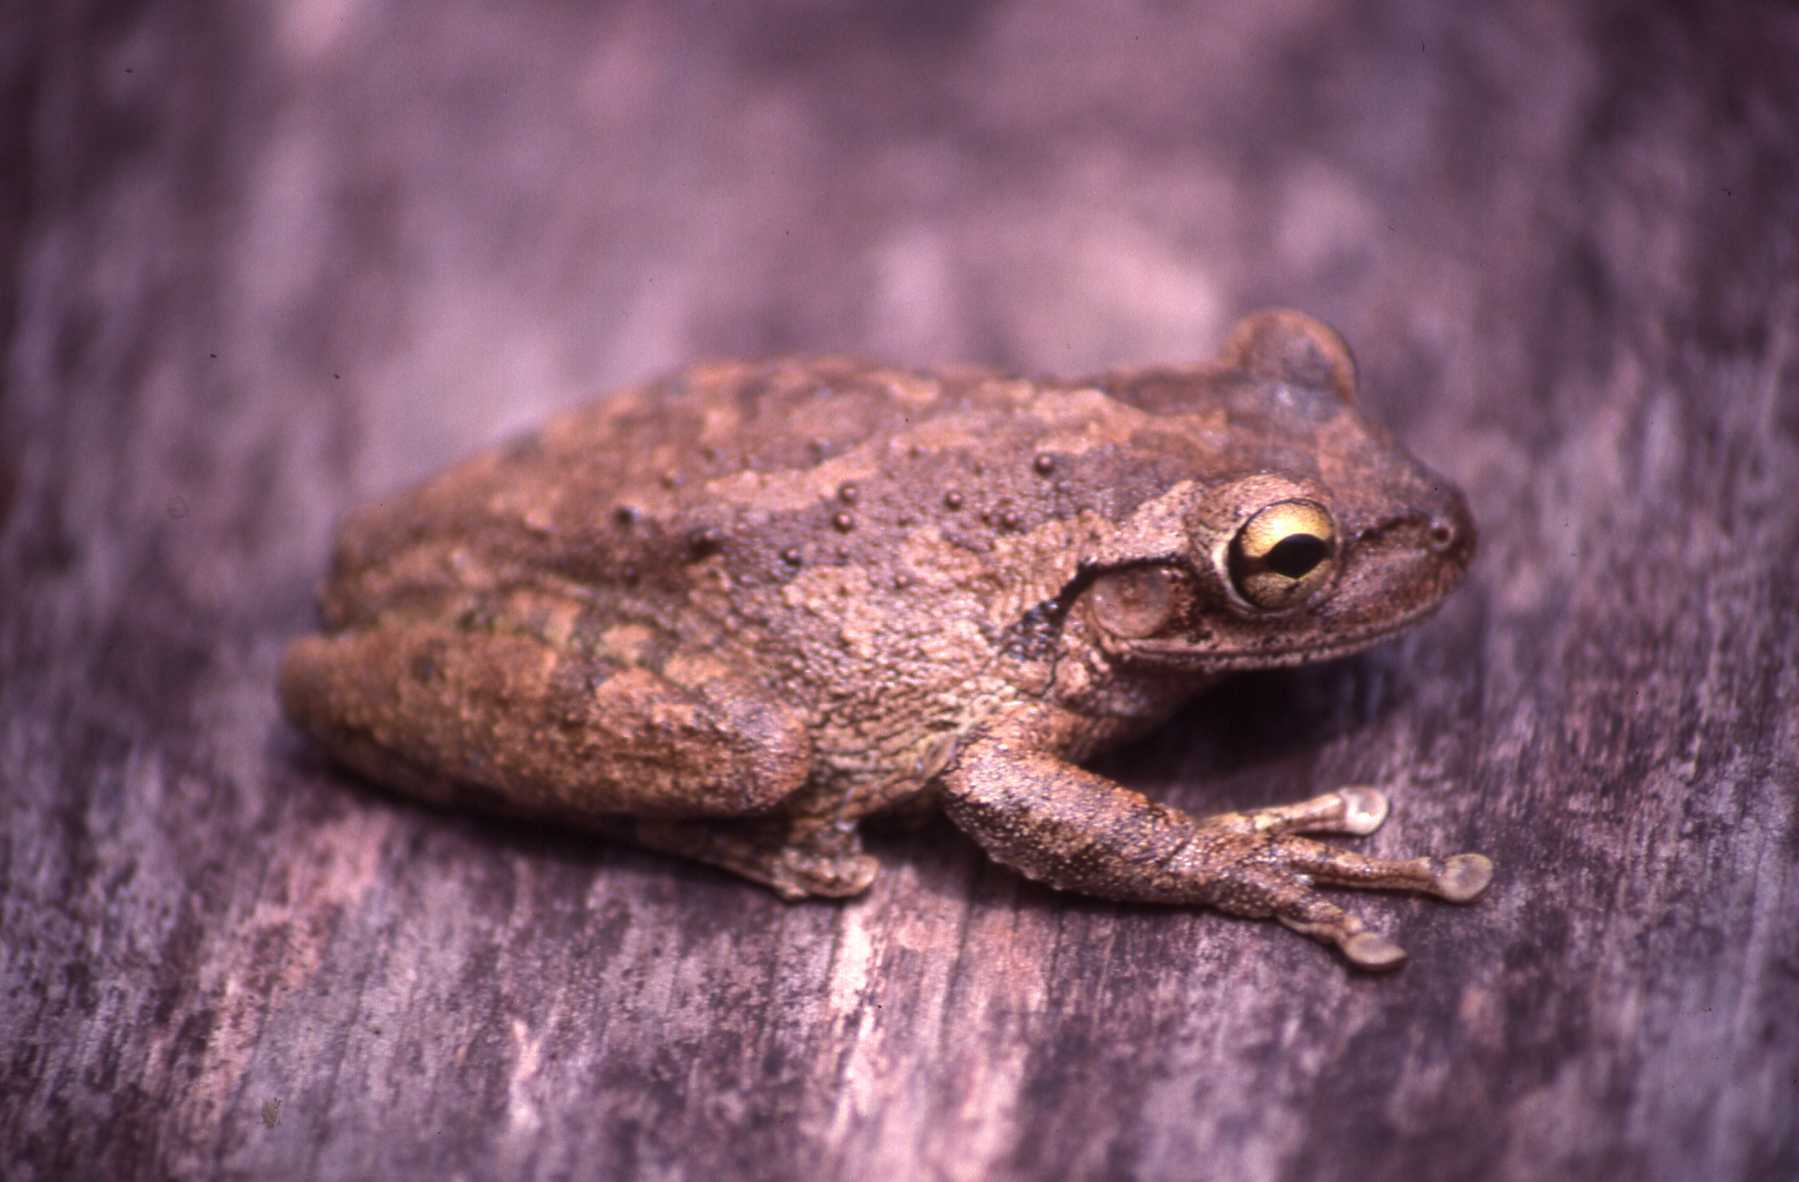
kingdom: Animalia
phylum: Chordata
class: Amphibia
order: Anura
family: Hylidae
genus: Osteopilus
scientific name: Osteopilus septentrionalis
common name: Cuban treefrog
